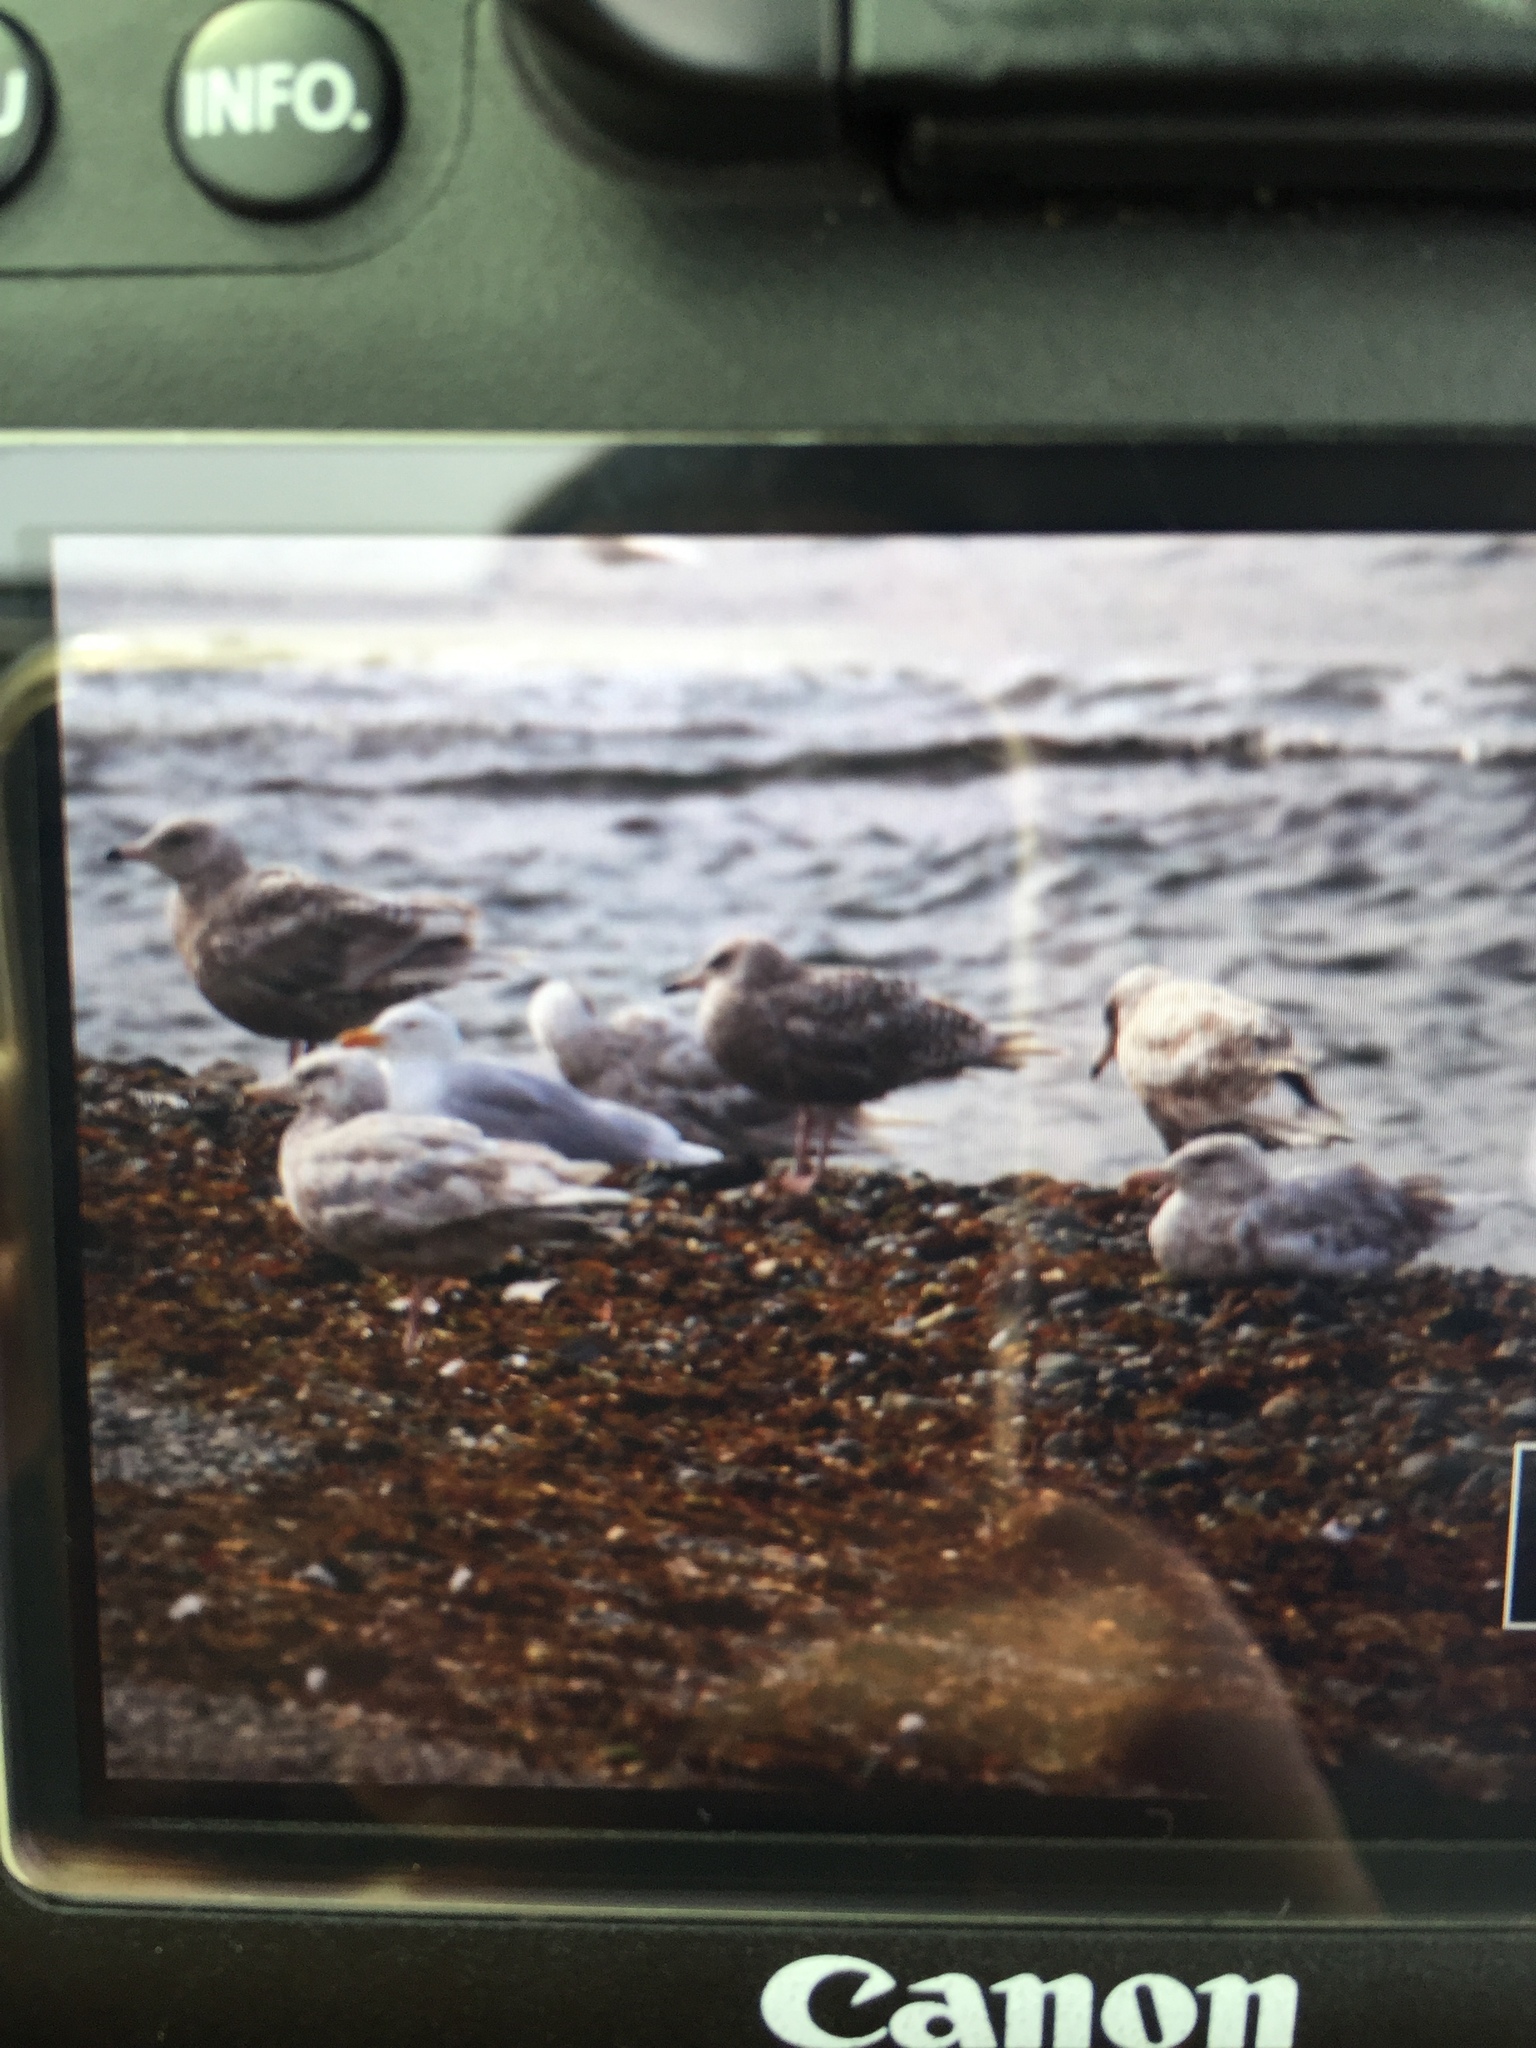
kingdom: Animalia
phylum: Chordata
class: Aves
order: Charadriiformes
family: Laridae
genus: Larus
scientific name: Larus hyperboreus
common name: Glaucous gull
